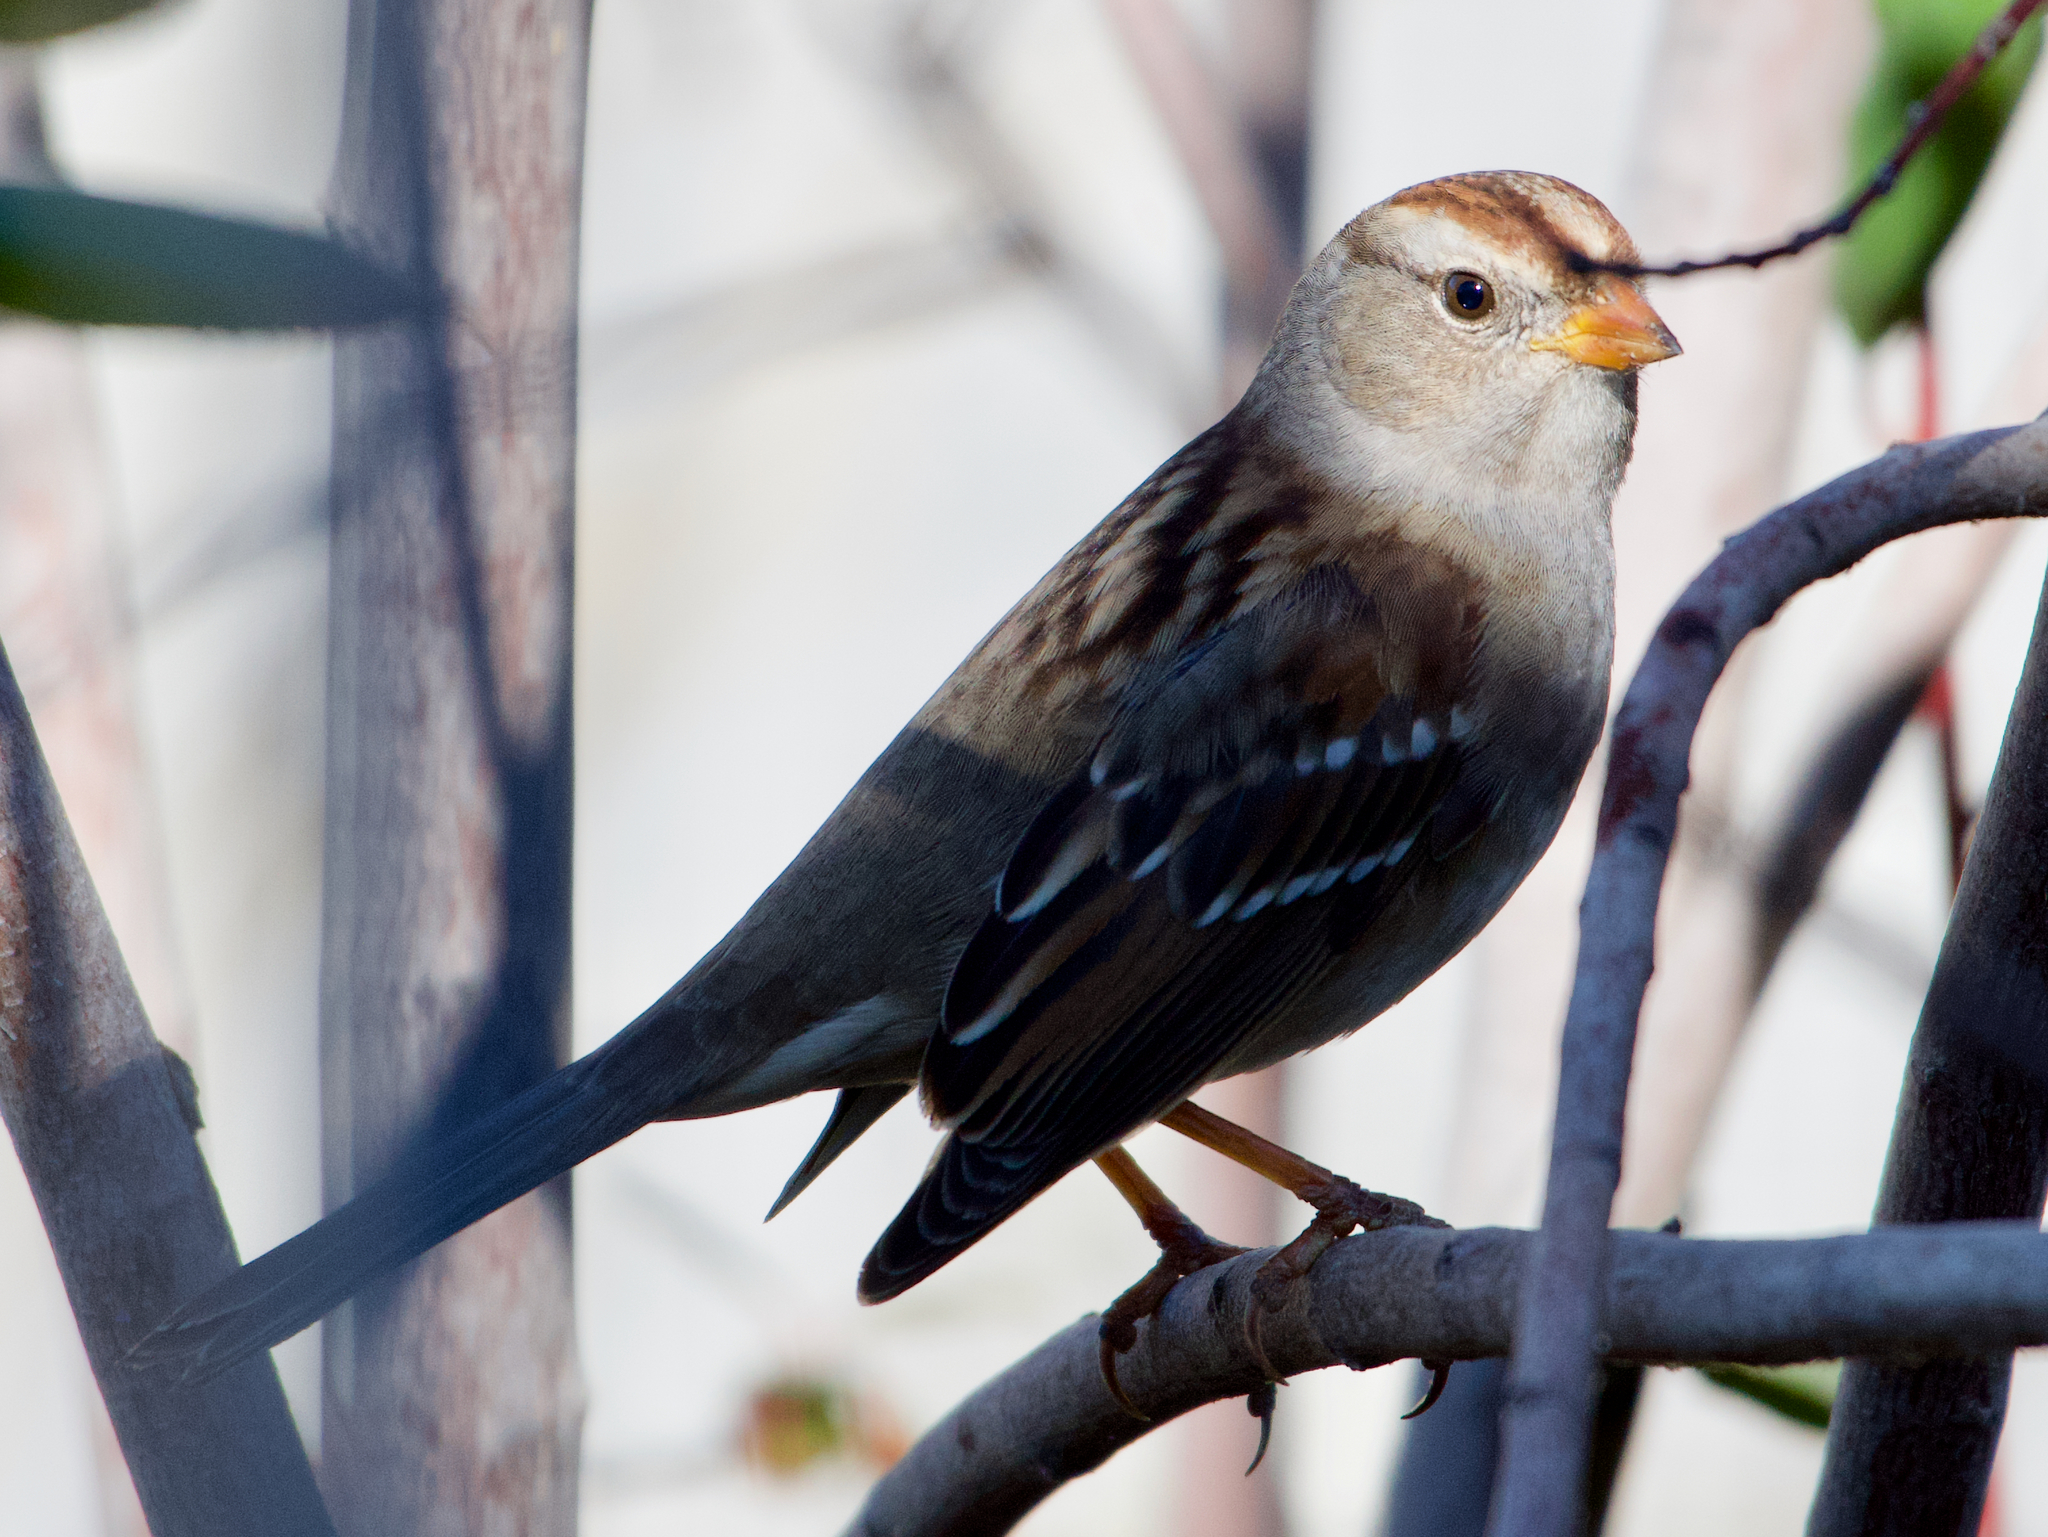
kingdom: Animalia
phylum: Chordata
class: Aves
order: Passeriformes
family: Passerellidae
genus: Zonotrichia
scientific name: Zonotrichia leucophrys
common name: White-crowned sparrow
